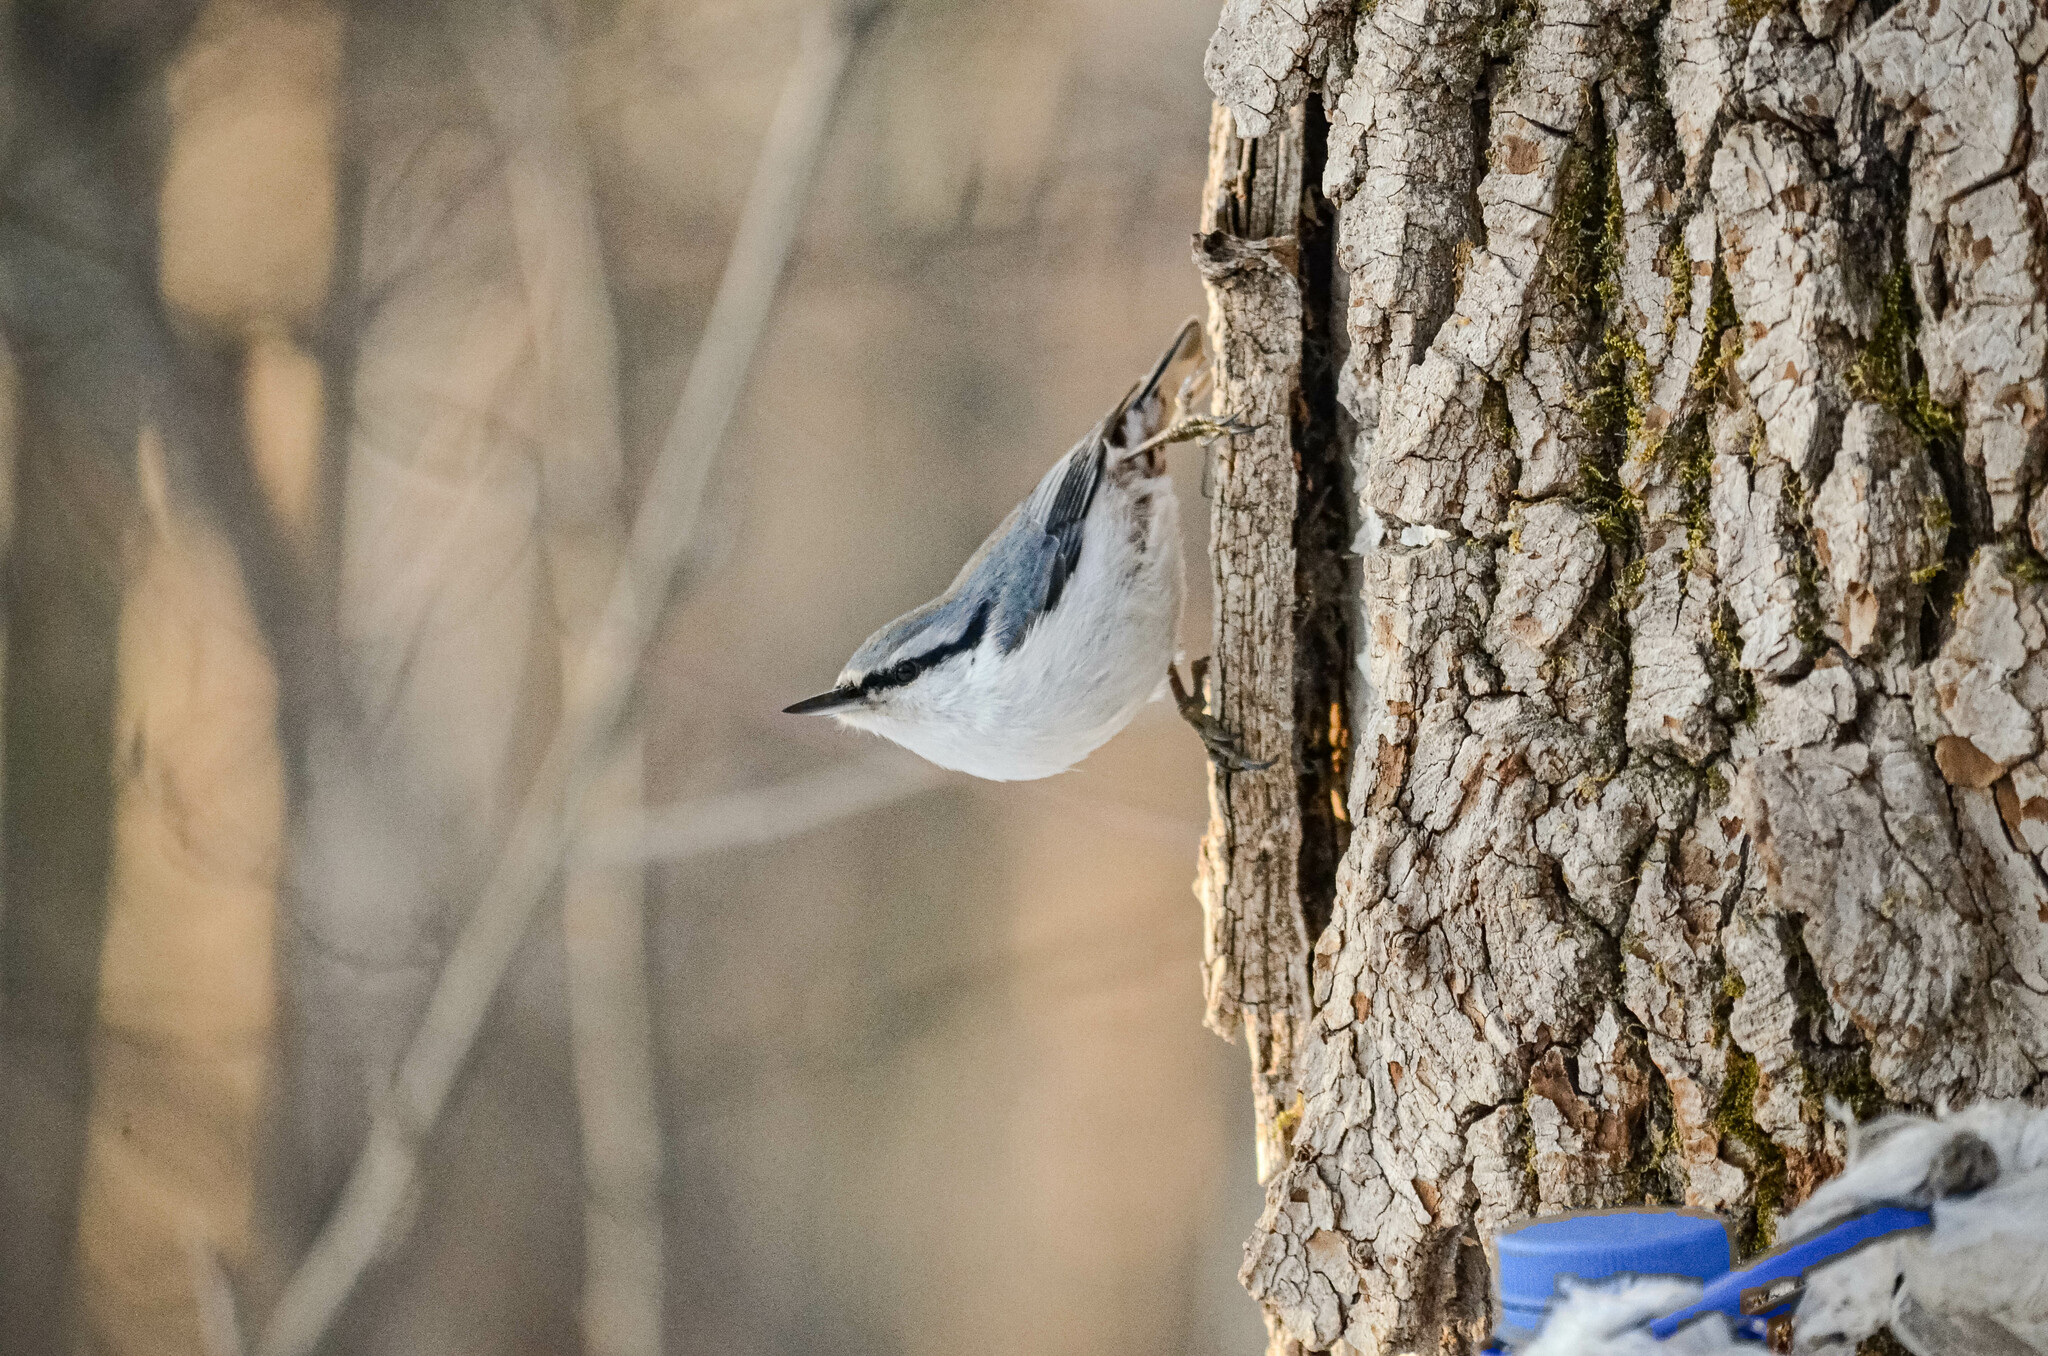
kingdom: Animalia
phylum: Chordata
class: Aves
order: Passeriformes
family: Sittidae
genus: Sitta
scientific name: Sitta europaea
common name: Eurasian nuthatch
